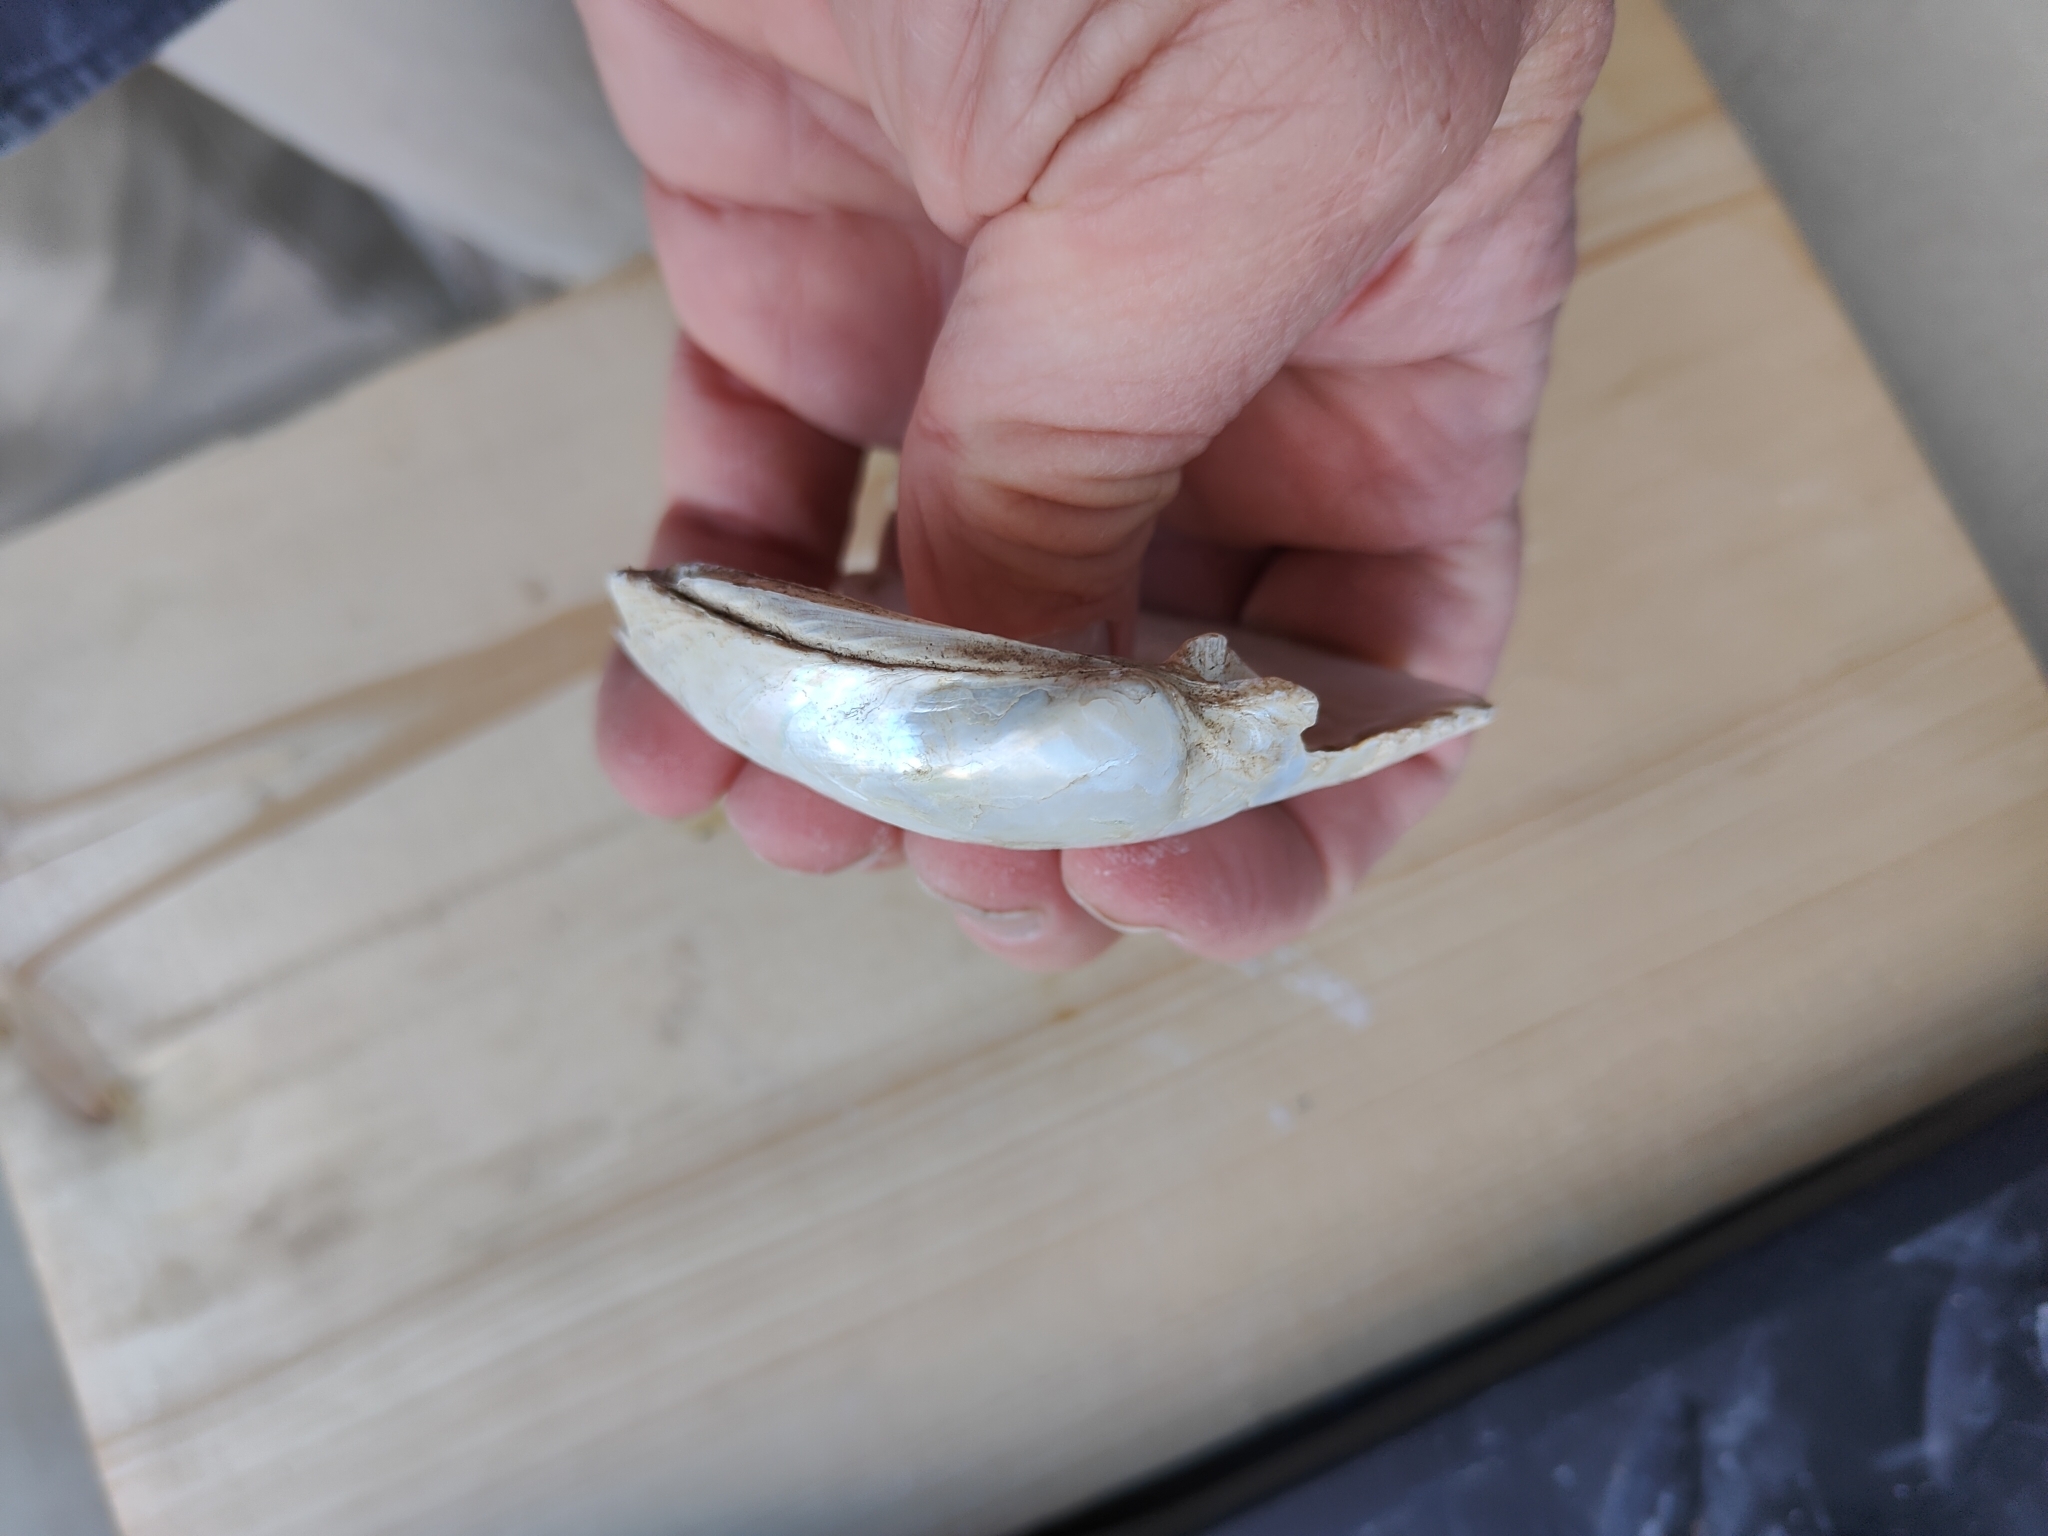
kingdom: Animalia
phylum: Mollusca
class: Bivalvia
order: Unionida
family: Unionidae
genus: Lampsilis
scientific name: Lampsilis cardium
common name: Plain pocketbook
